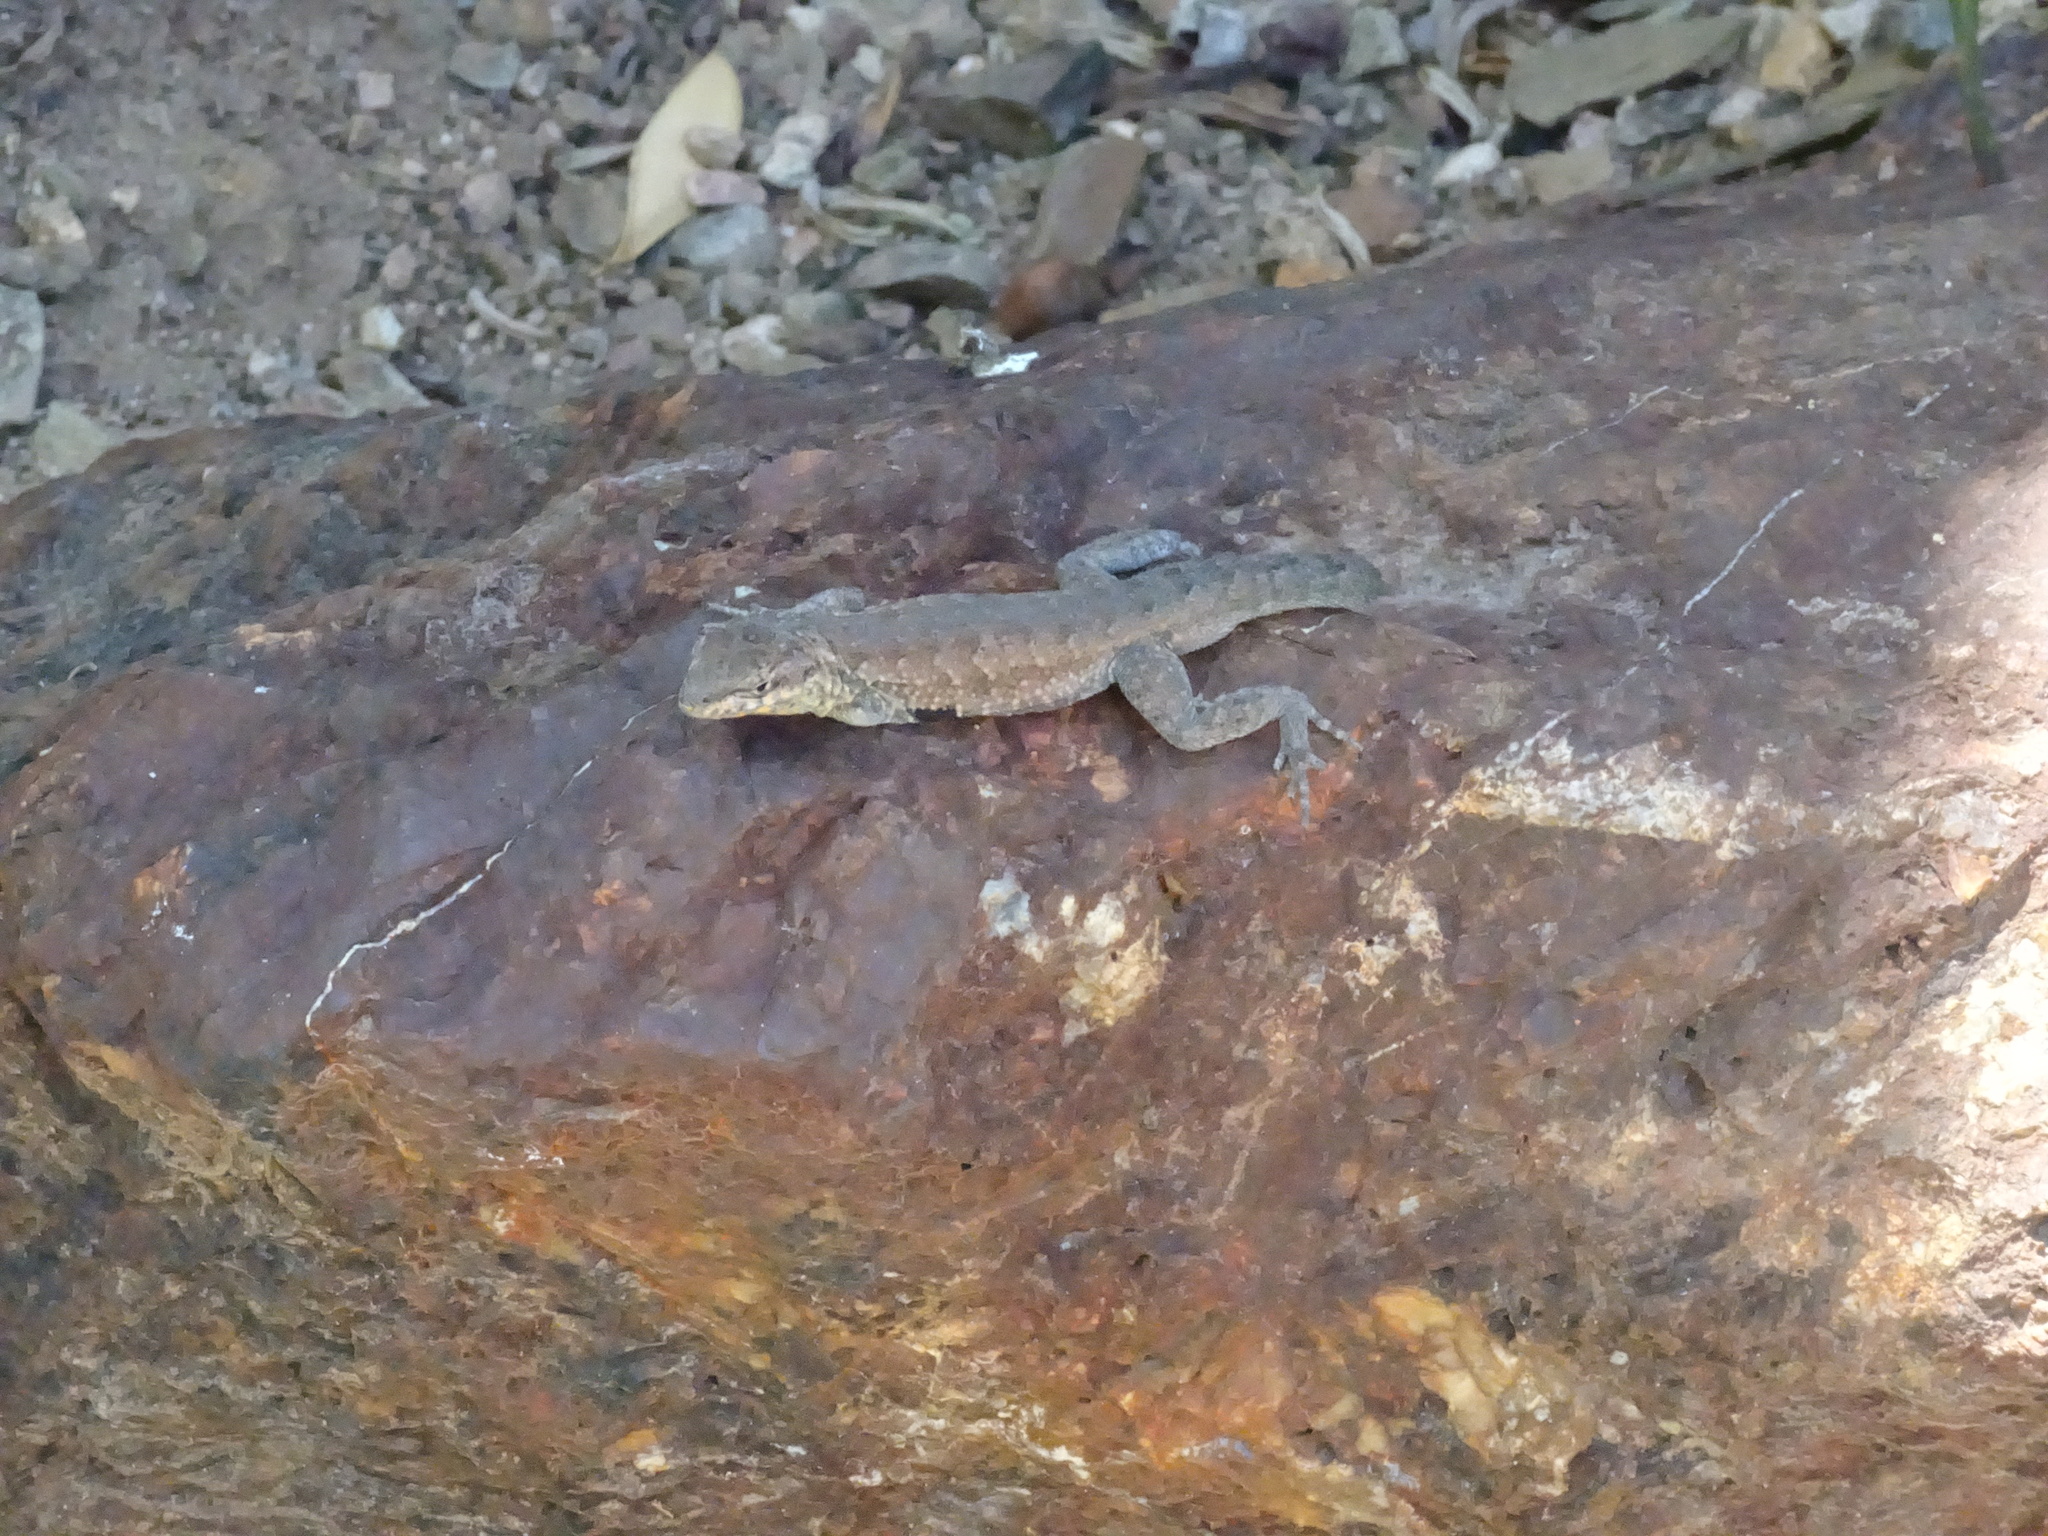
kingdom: Animalia
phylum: Chordata
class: Squamata
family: Phrynosomatidae
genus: Uta
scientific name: Uta stansburiana
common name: Side-blotched lizard
